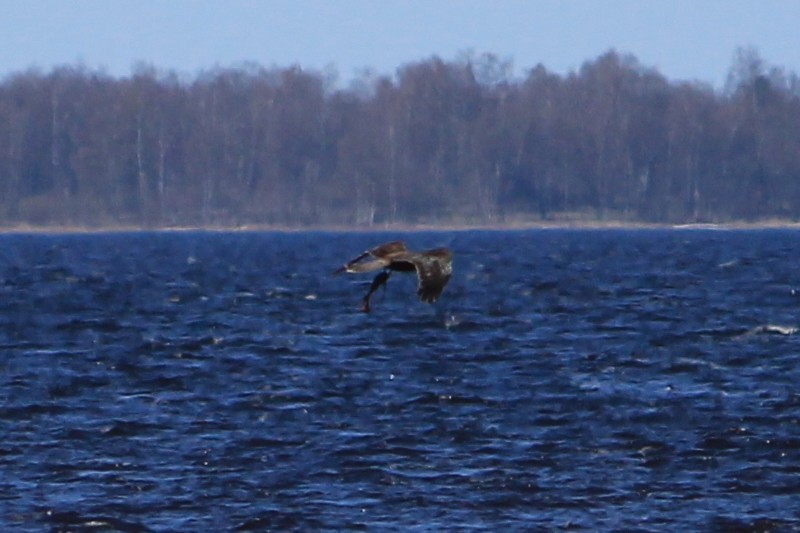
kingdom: Animalia
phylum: Chordata
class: Aves
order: Accipitriformes
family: Accipitridae
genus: Circus
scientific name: Circus aeruginosus
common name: Western marsh harrier
